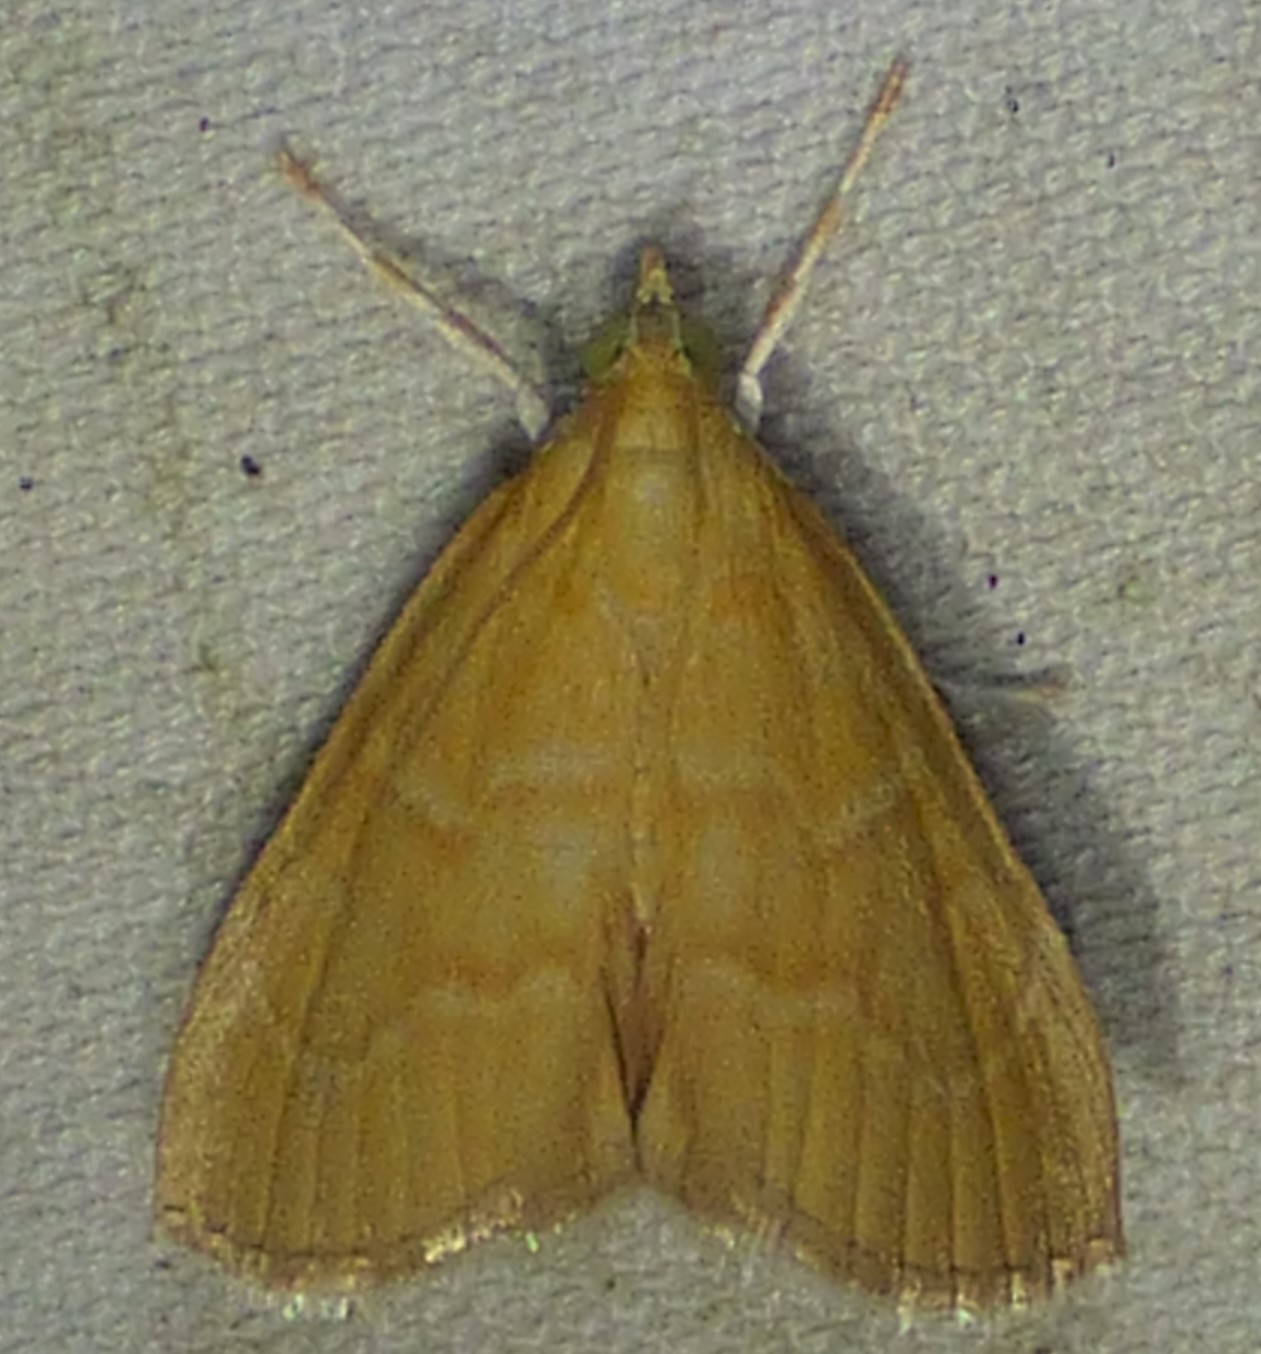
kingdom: Animalia
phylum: Arthropoda
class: Insecta
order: Lepidoptera
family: Crambidae
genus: Aethiophysa
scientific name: Aethiophysa
